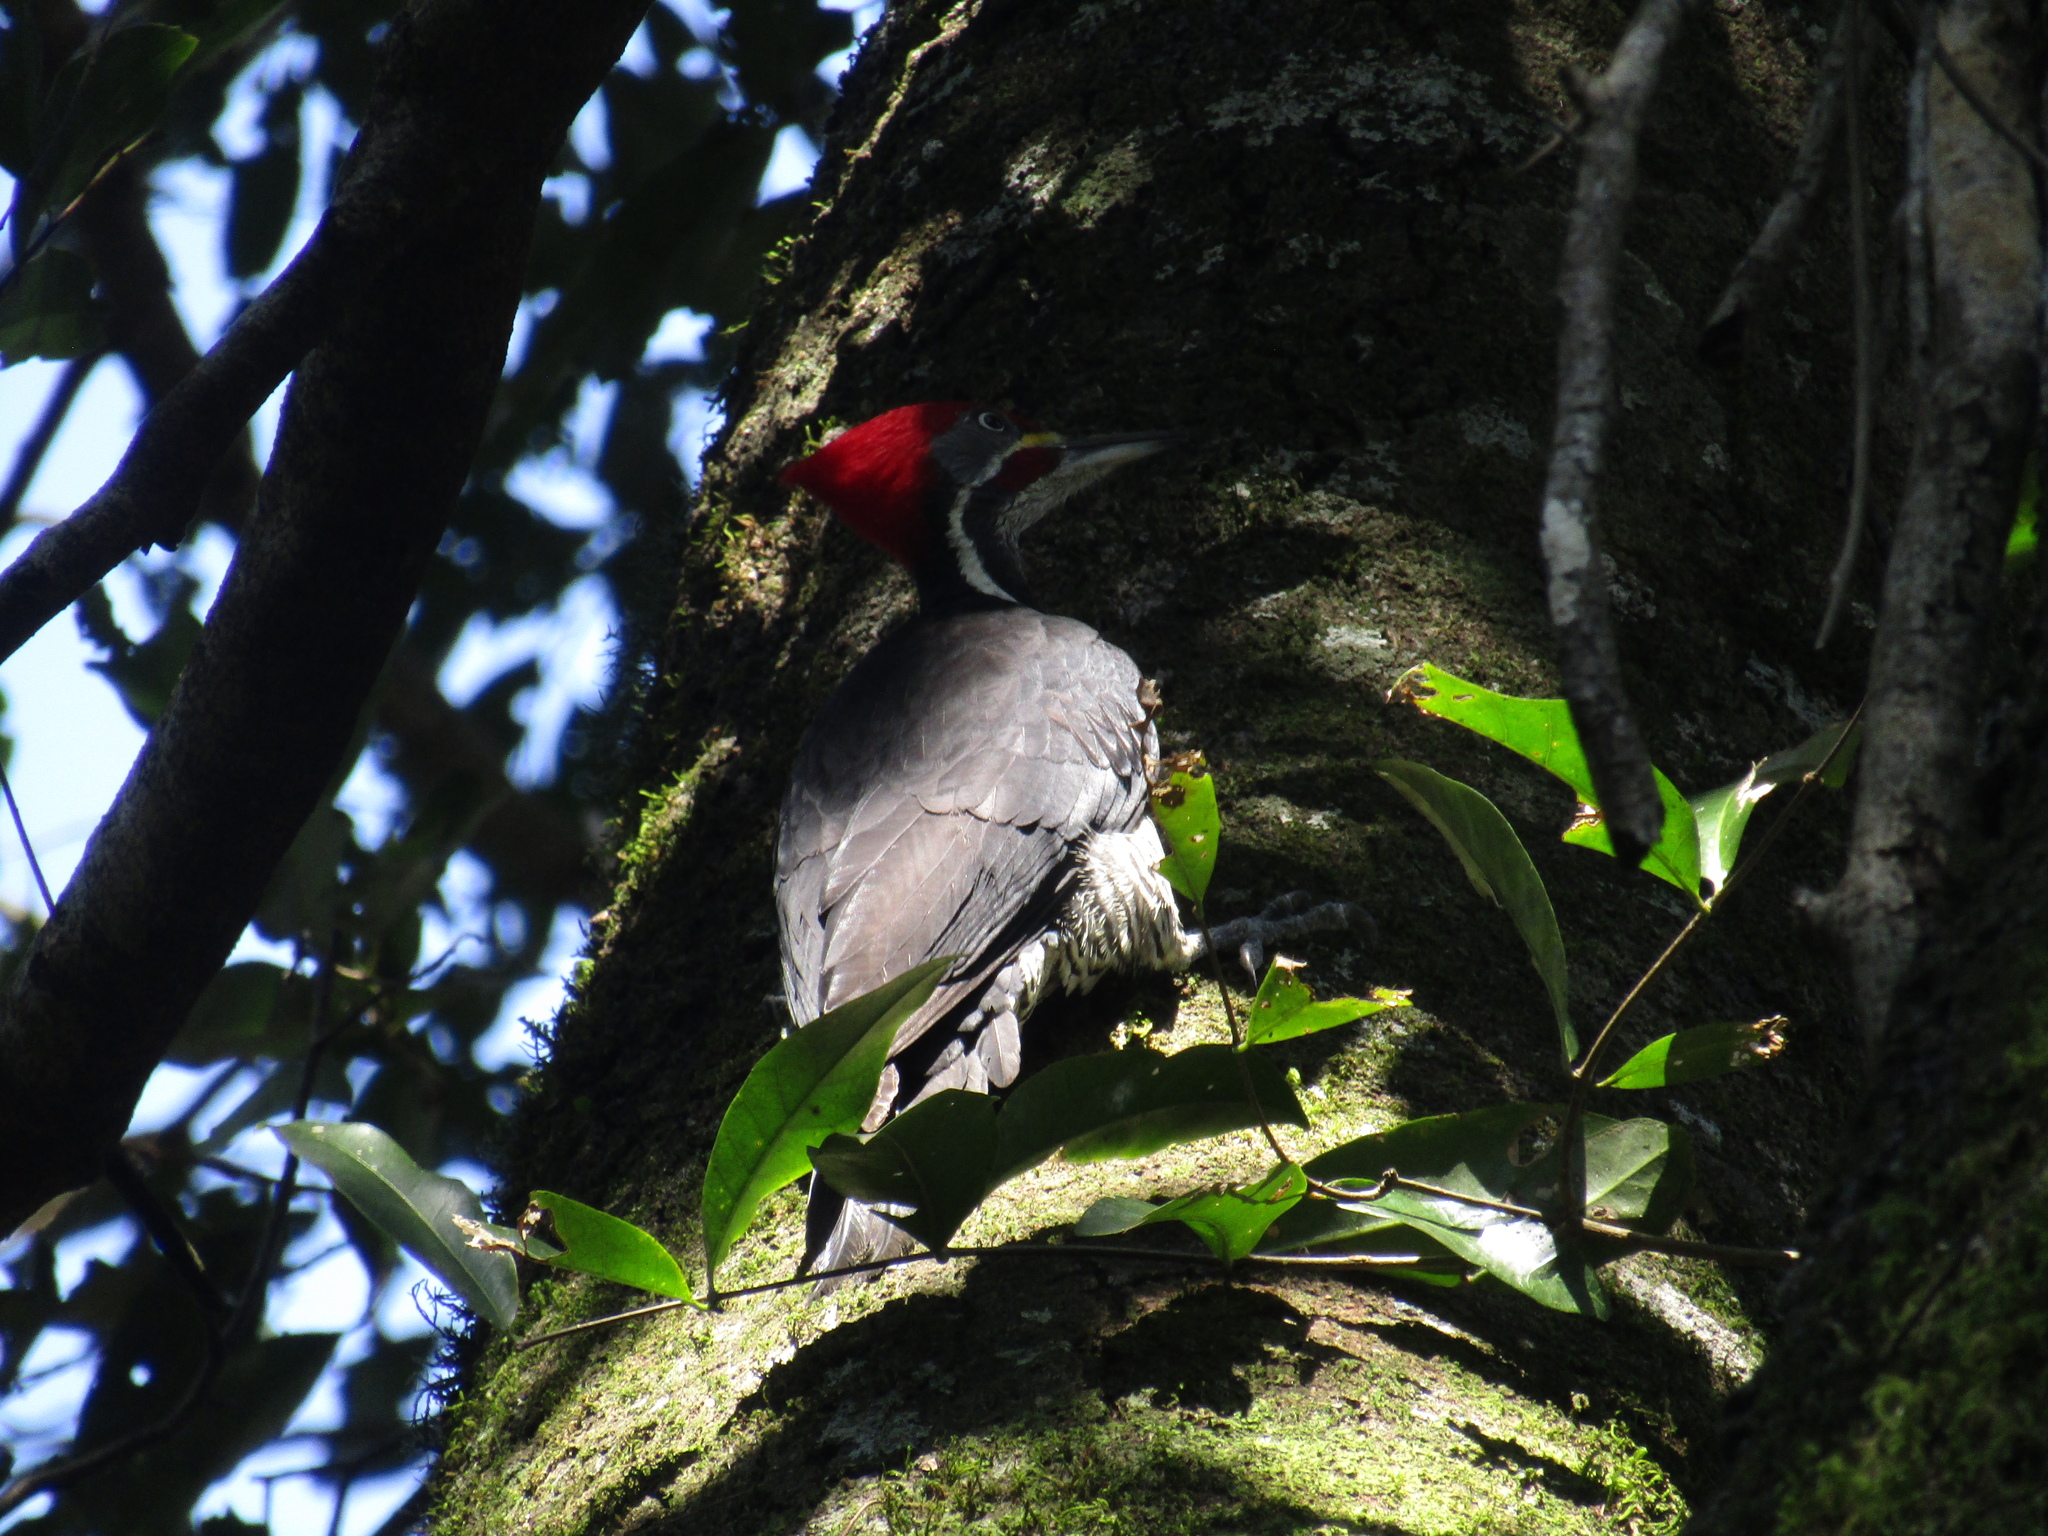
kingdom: Animalia
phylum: Chordata
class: Aves
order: Piciformes
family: Picidae
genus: Dryocopus
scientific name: Dryocopus lineatus
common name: Lineated woodpecker
